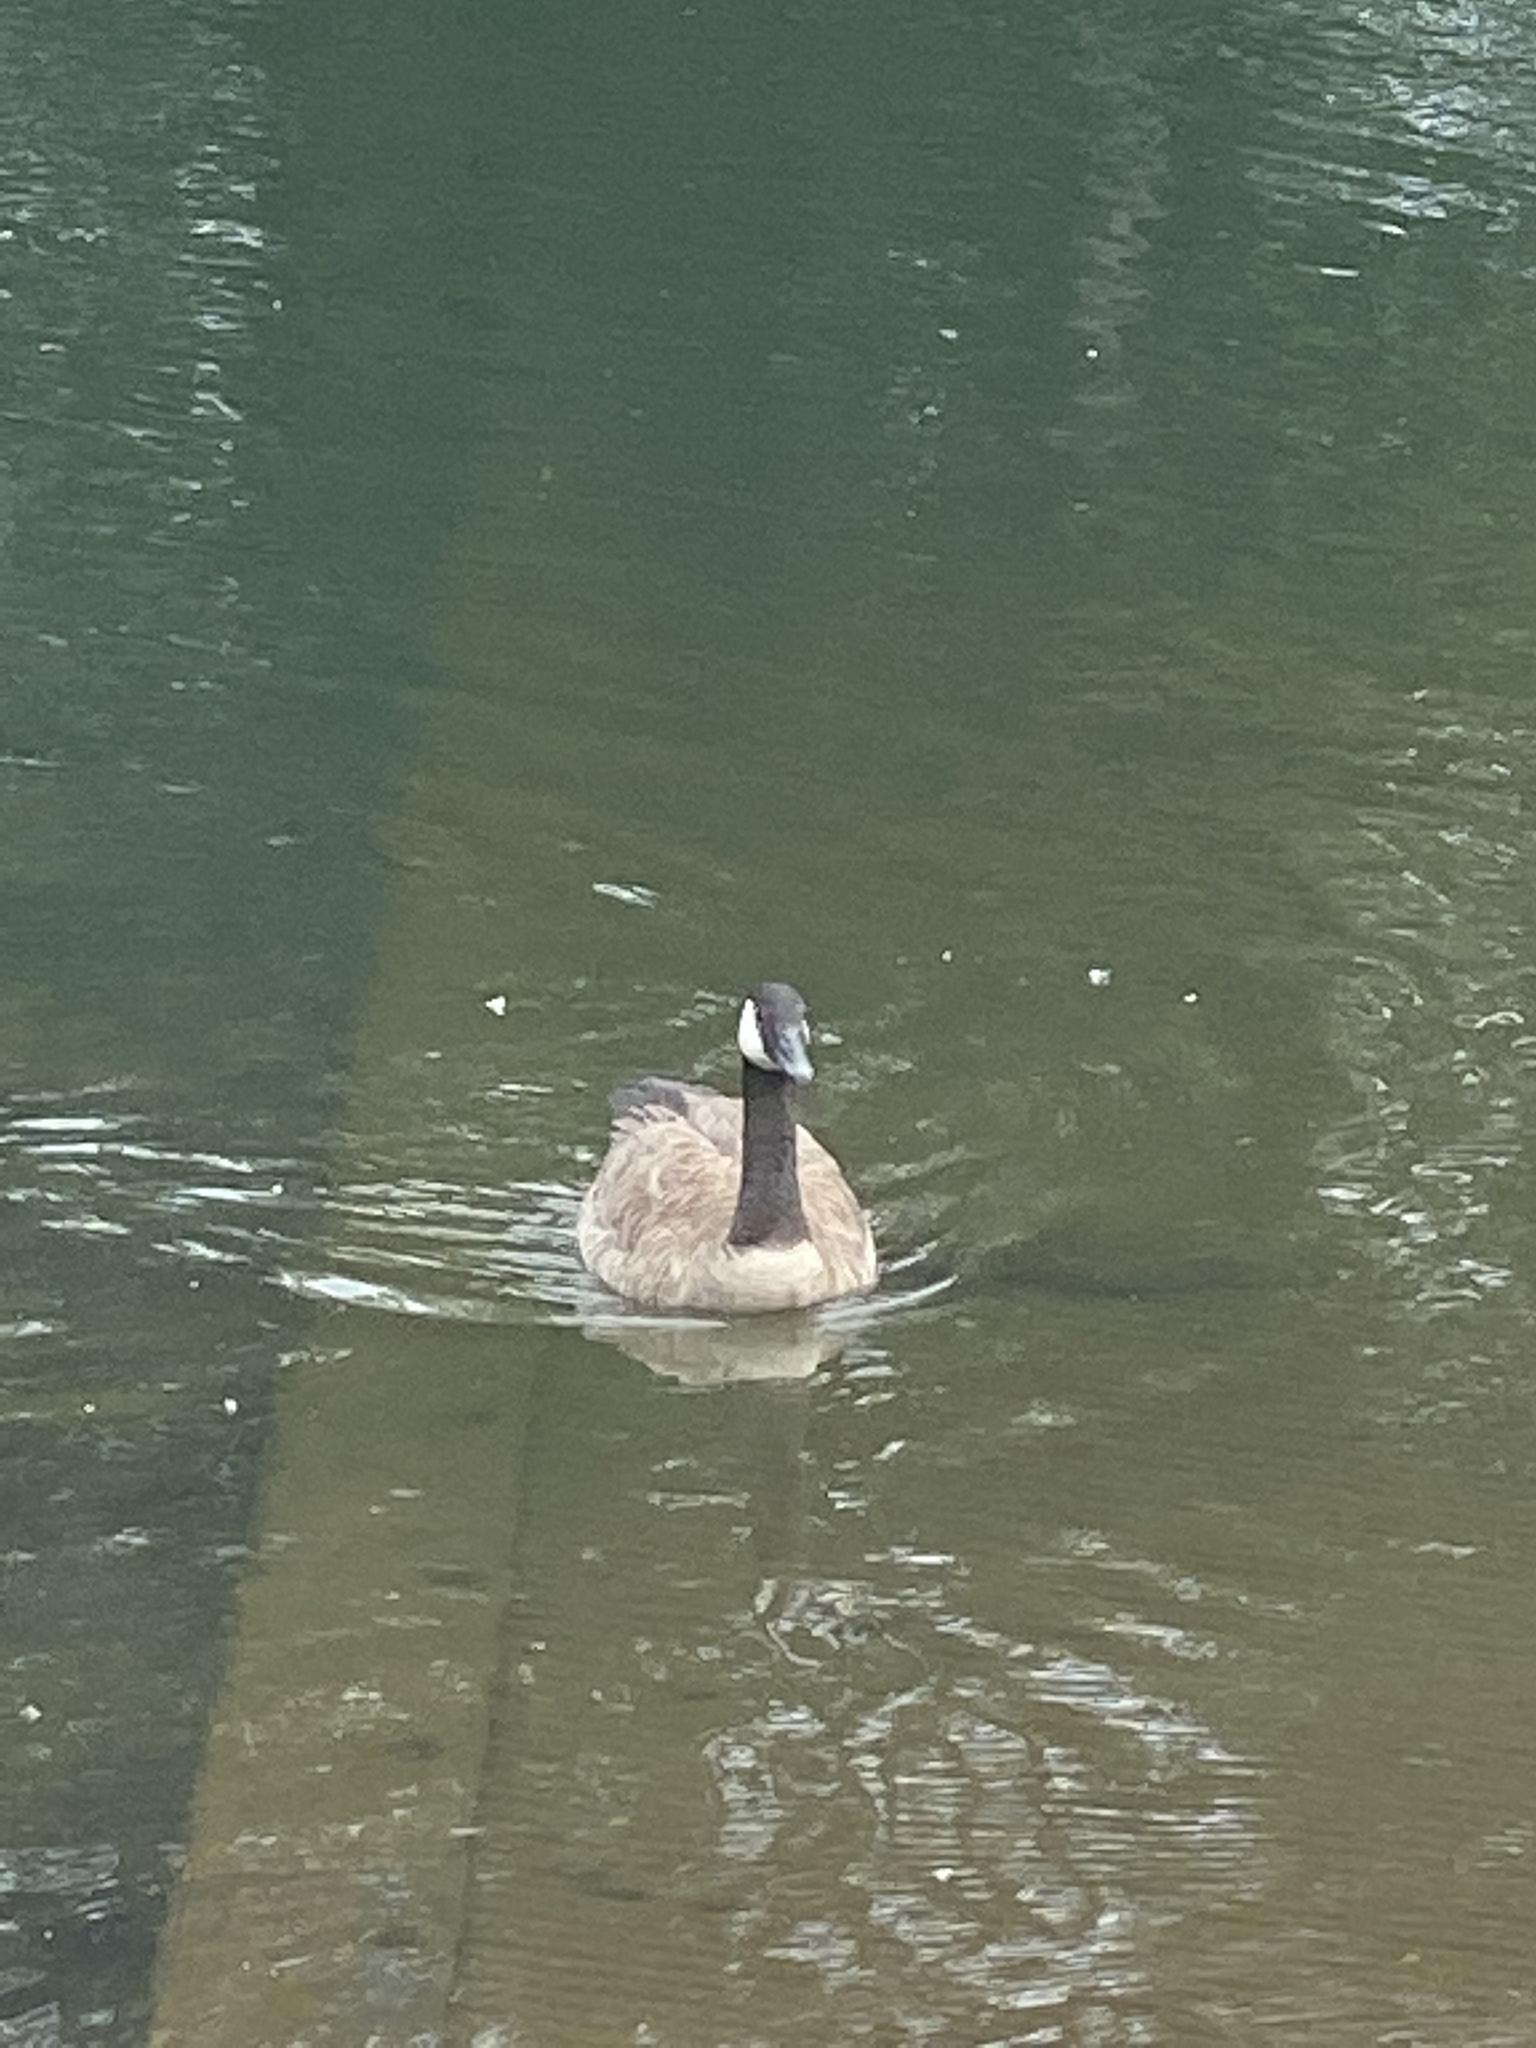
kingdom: Animalia
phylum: Chordata
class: Aves
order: Anseriformes
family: Anatidae
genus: Branta
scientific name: Branta canadensis
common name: Canada goose
